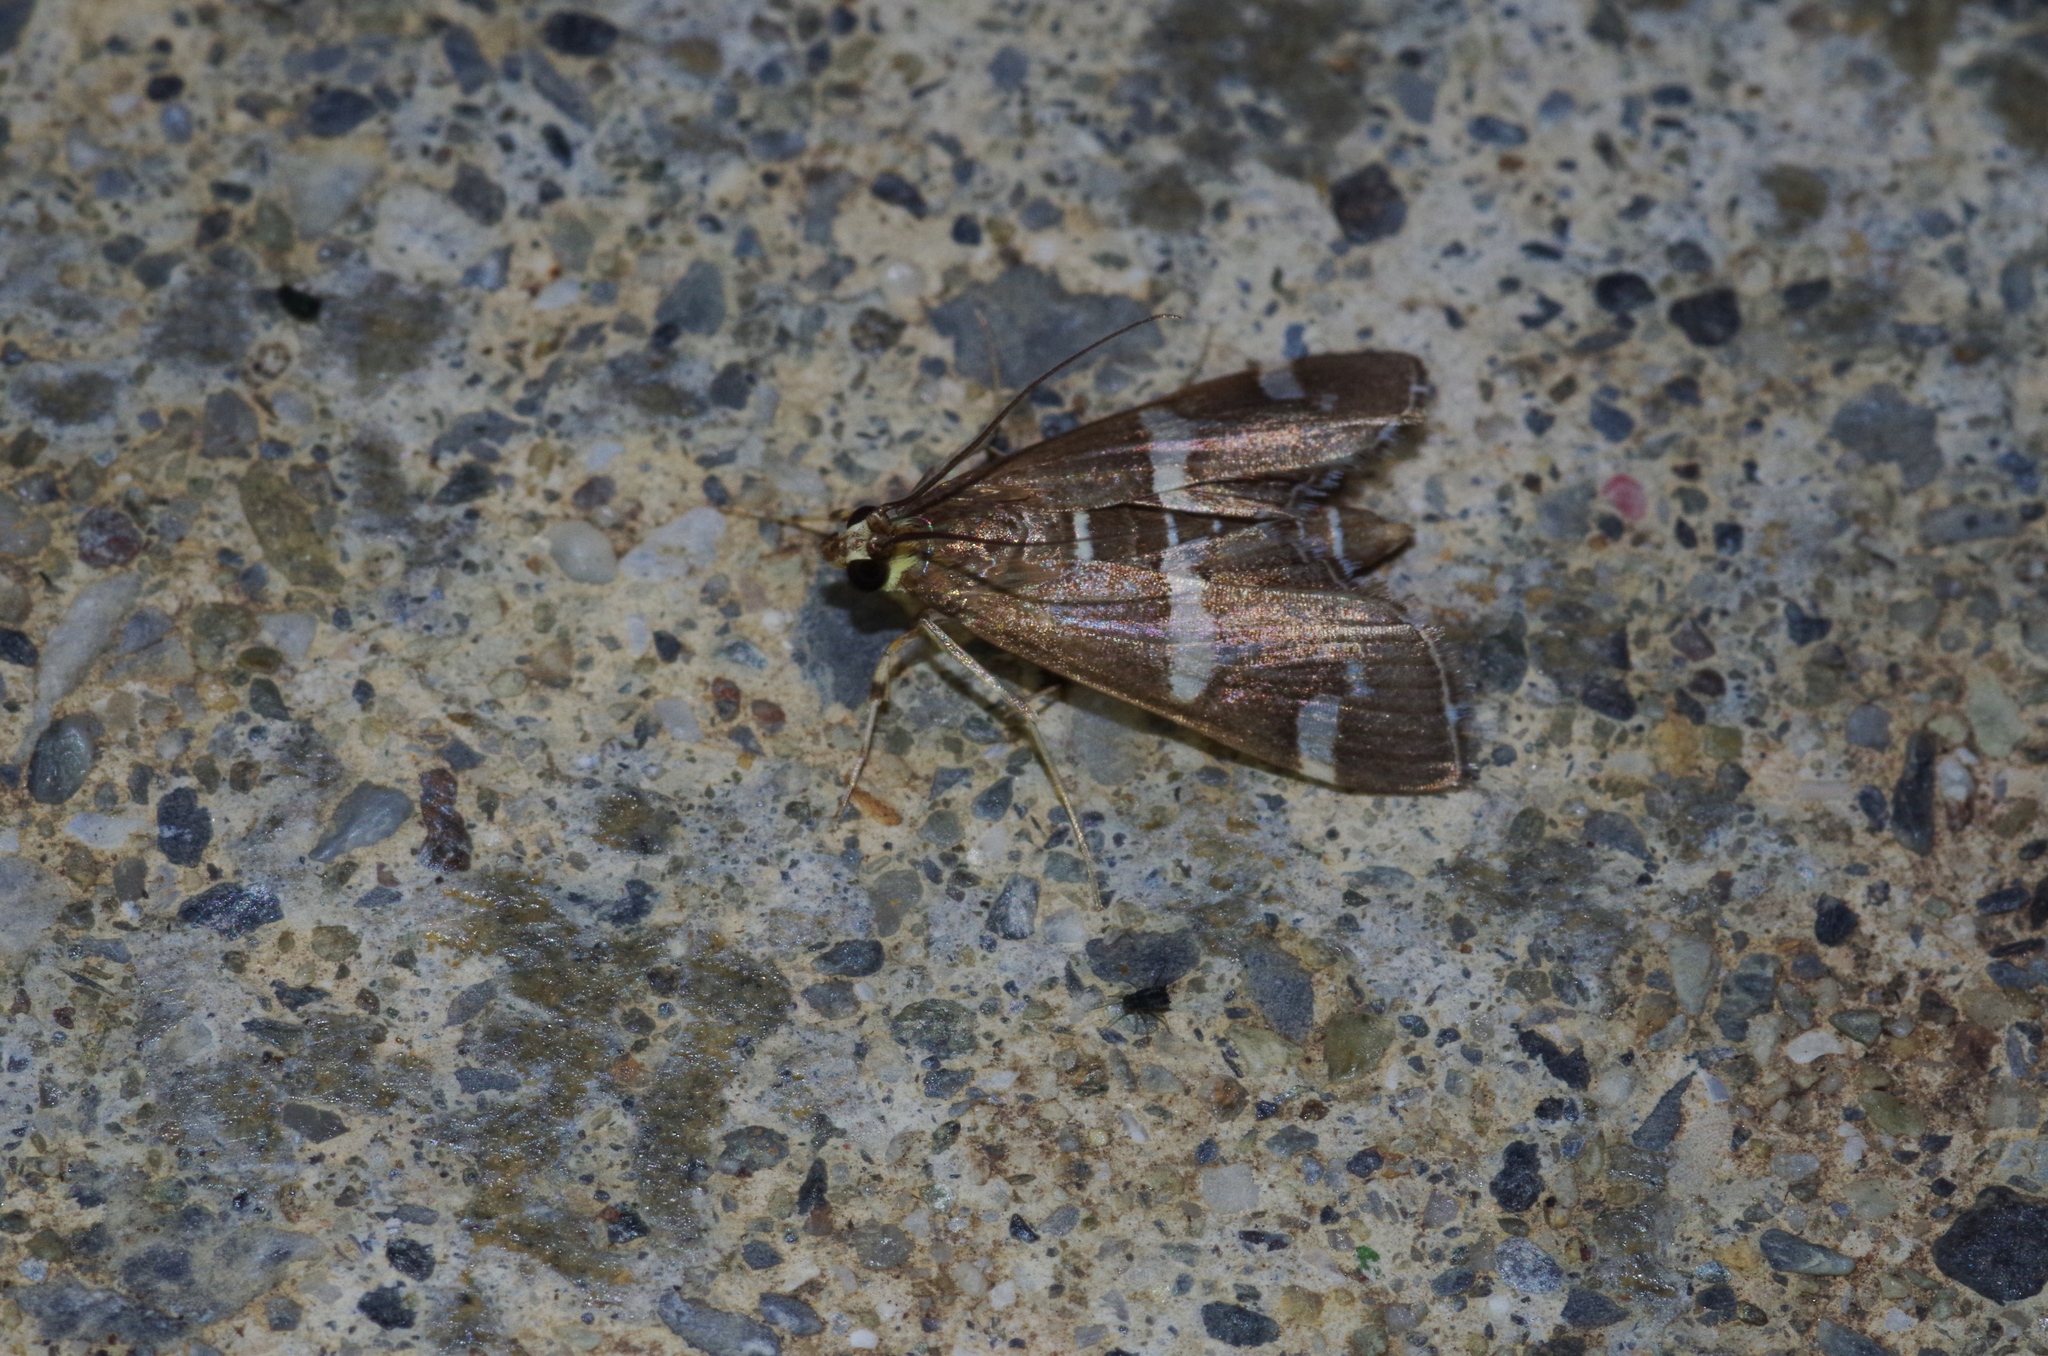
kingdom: Animalia
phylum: Arthropoda
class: Insecta
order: Lepidoptera
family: Crambidae
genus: Spoladea
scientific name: Spoladea recurvalis
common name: Beet webworm moth
